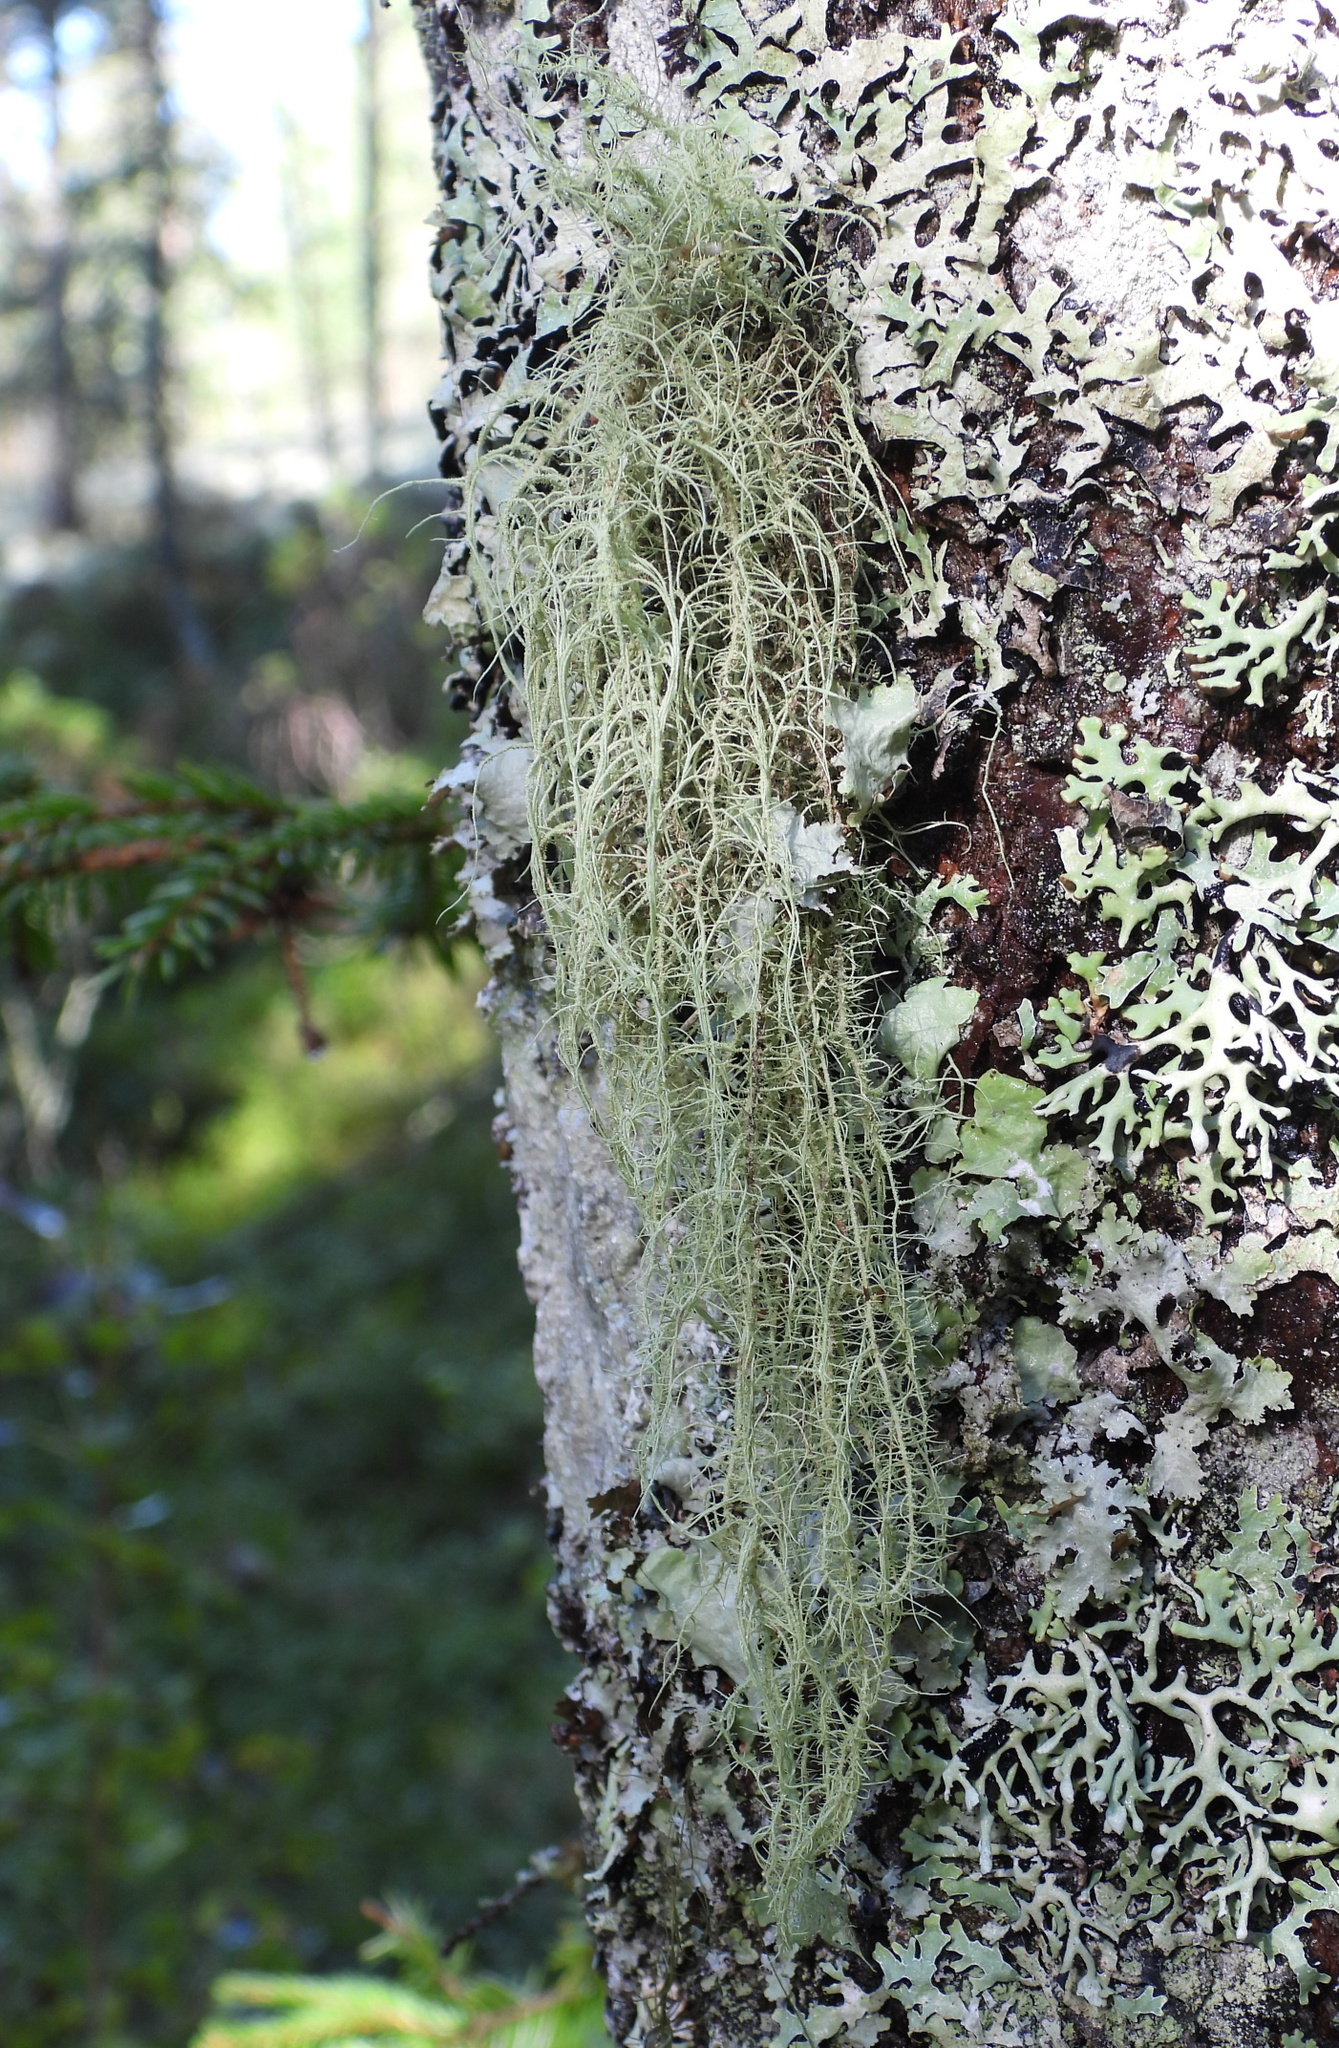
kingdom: Fungi
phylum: Ascomycota
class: Lecanoromycetes
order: Lecanorales
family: Parmeliaceae
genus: Usnea
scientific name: Usnea dasopoga
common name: Fishbone beard lichen
